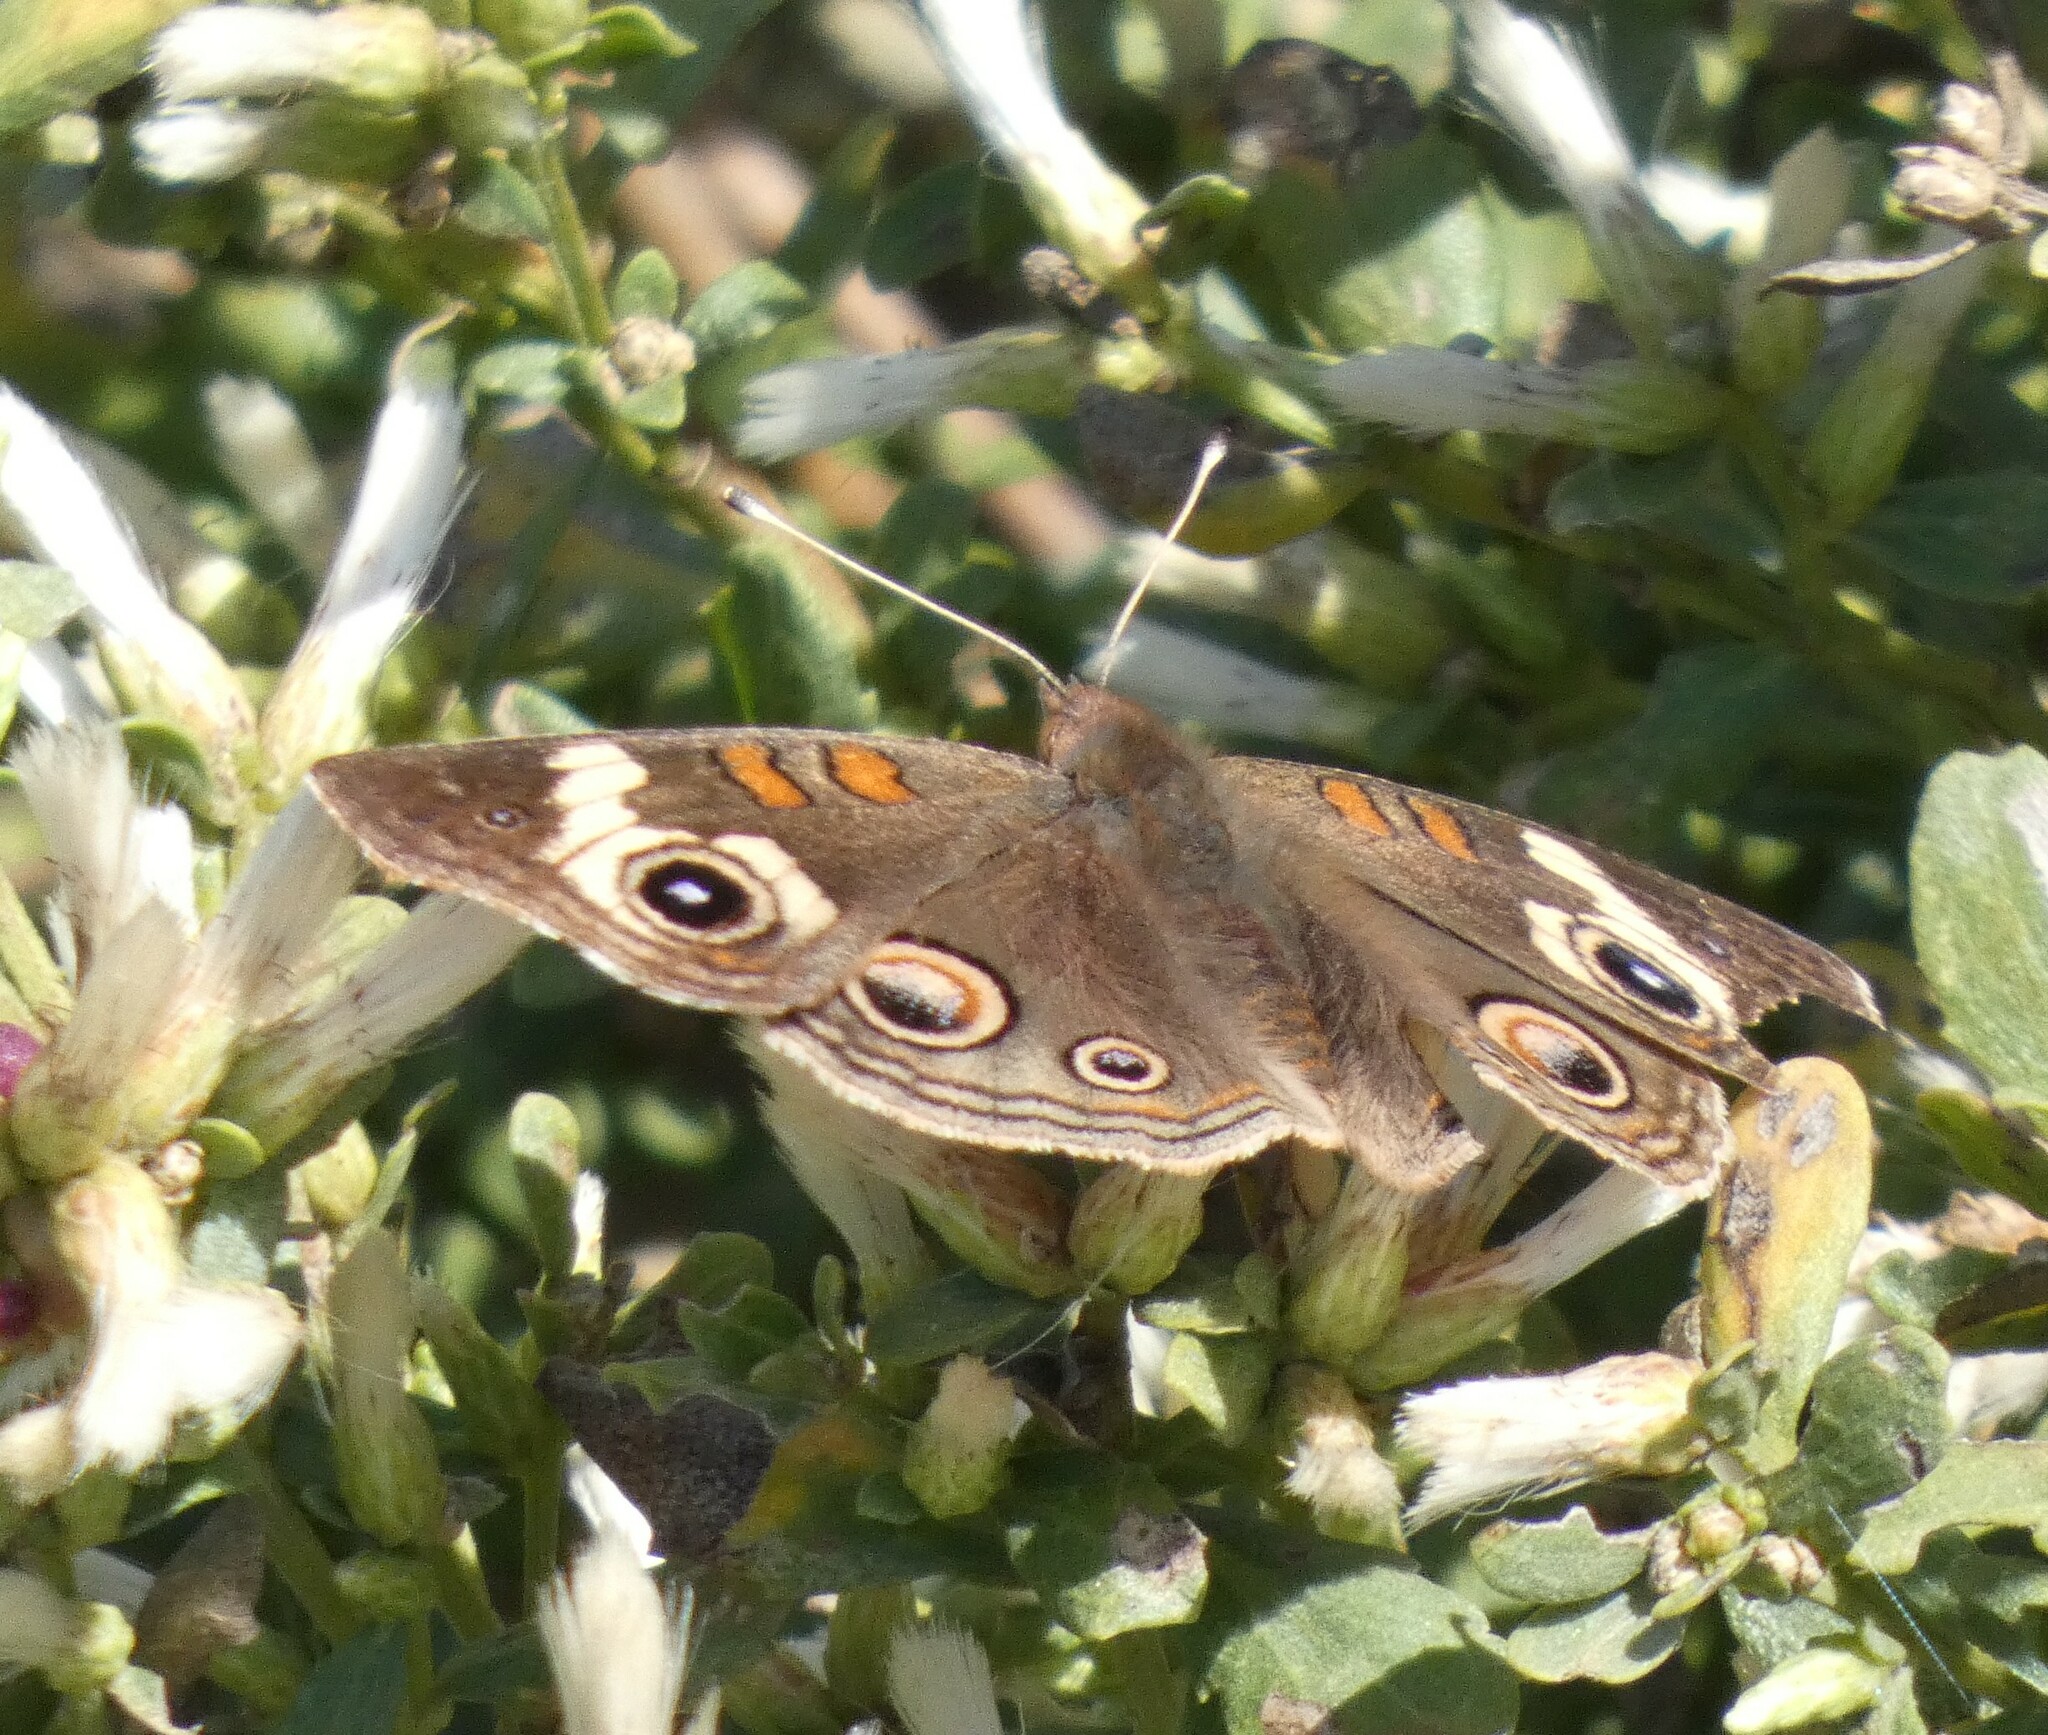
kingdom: Animalia
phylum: Arthropoda
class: Insecta
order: Lepidoptera
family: Nymphalidae
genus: Junonia
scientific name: Junonia grisea
